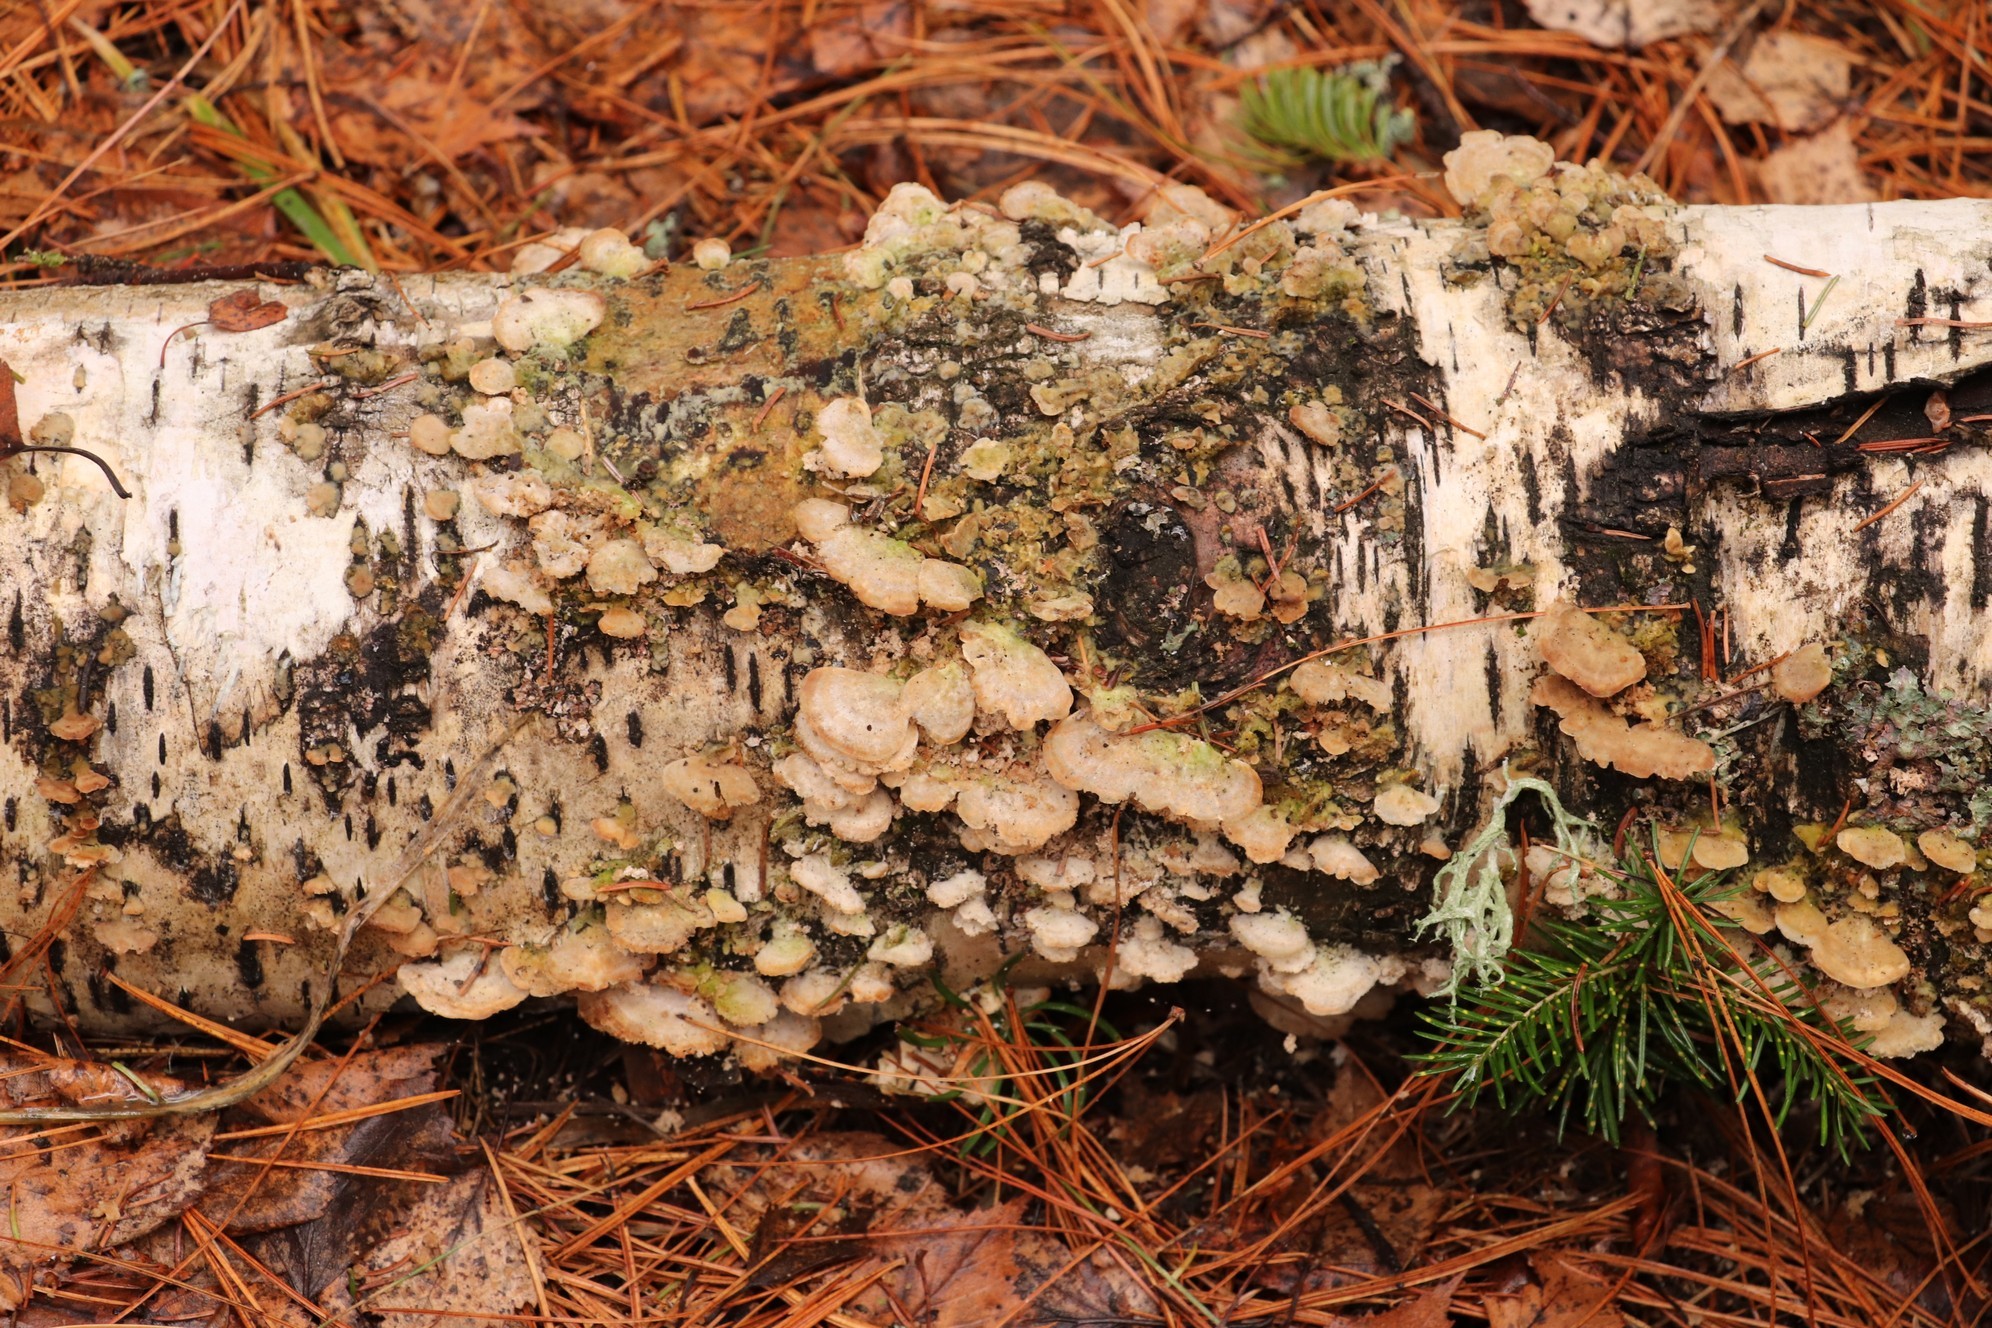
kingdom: Fungi
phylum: Basidiomycota
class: Agaricomycetes
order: Hymenochaetales
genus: Trichaptum
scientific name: Trichaptum biforme
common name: Violet-toothed polypore
